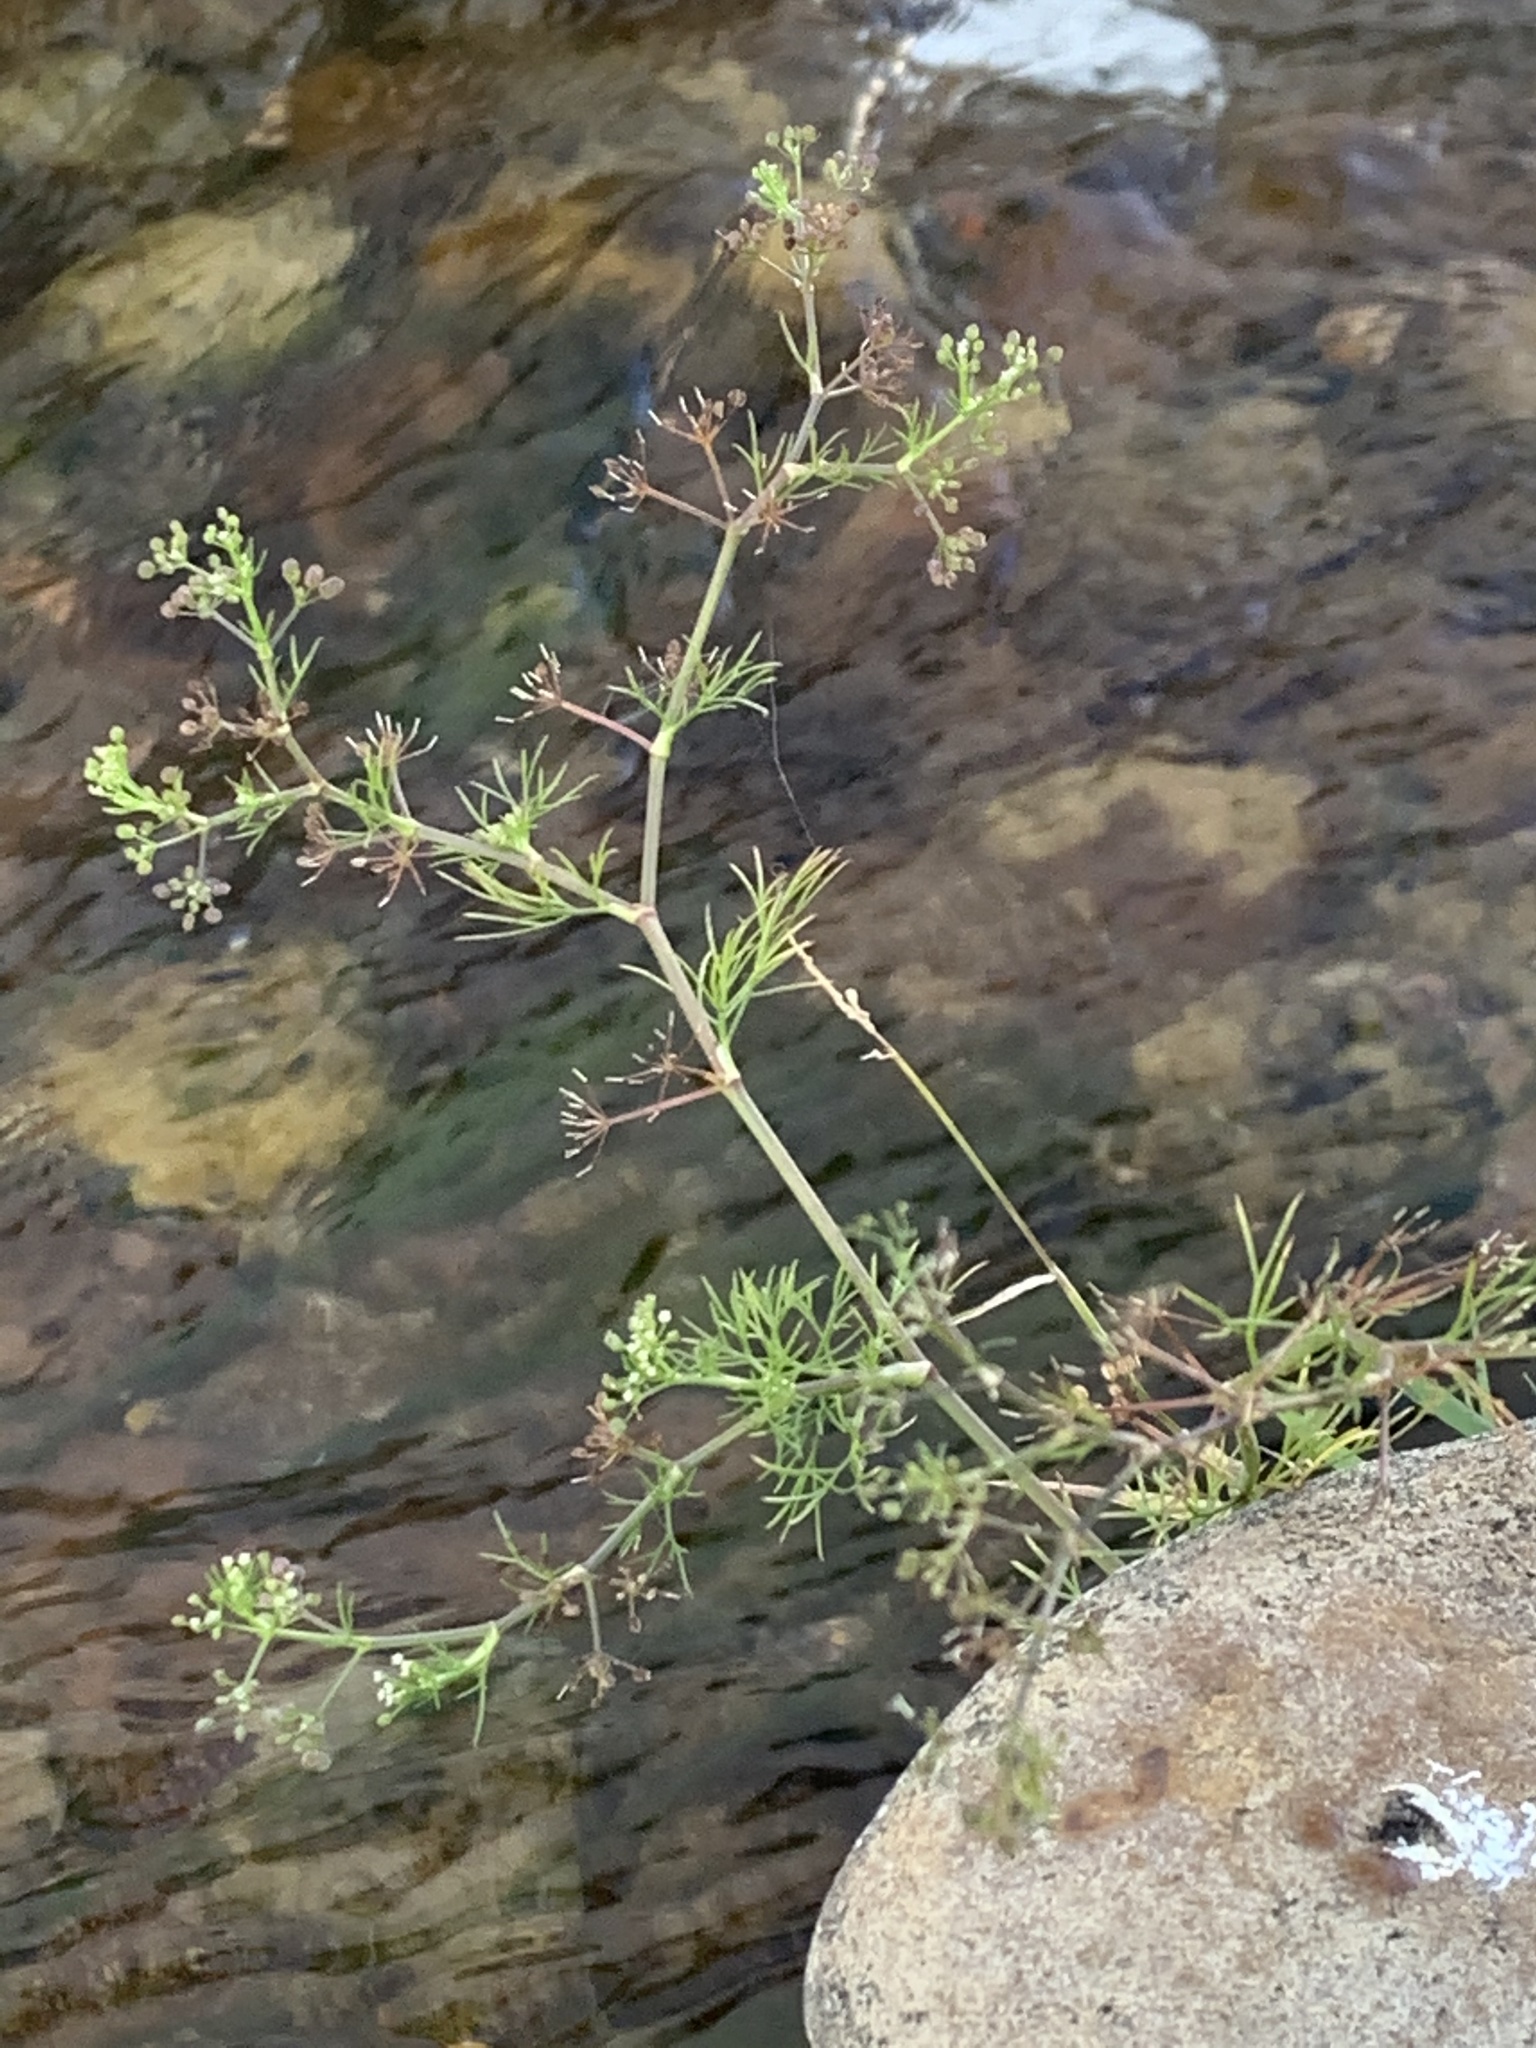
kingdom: Plantae
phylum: Tracheophyta
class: Magnoliopsida
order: Apiales
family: Apiaceae
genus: Cyclospermum
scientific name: Cyclospermum leptophyllum
